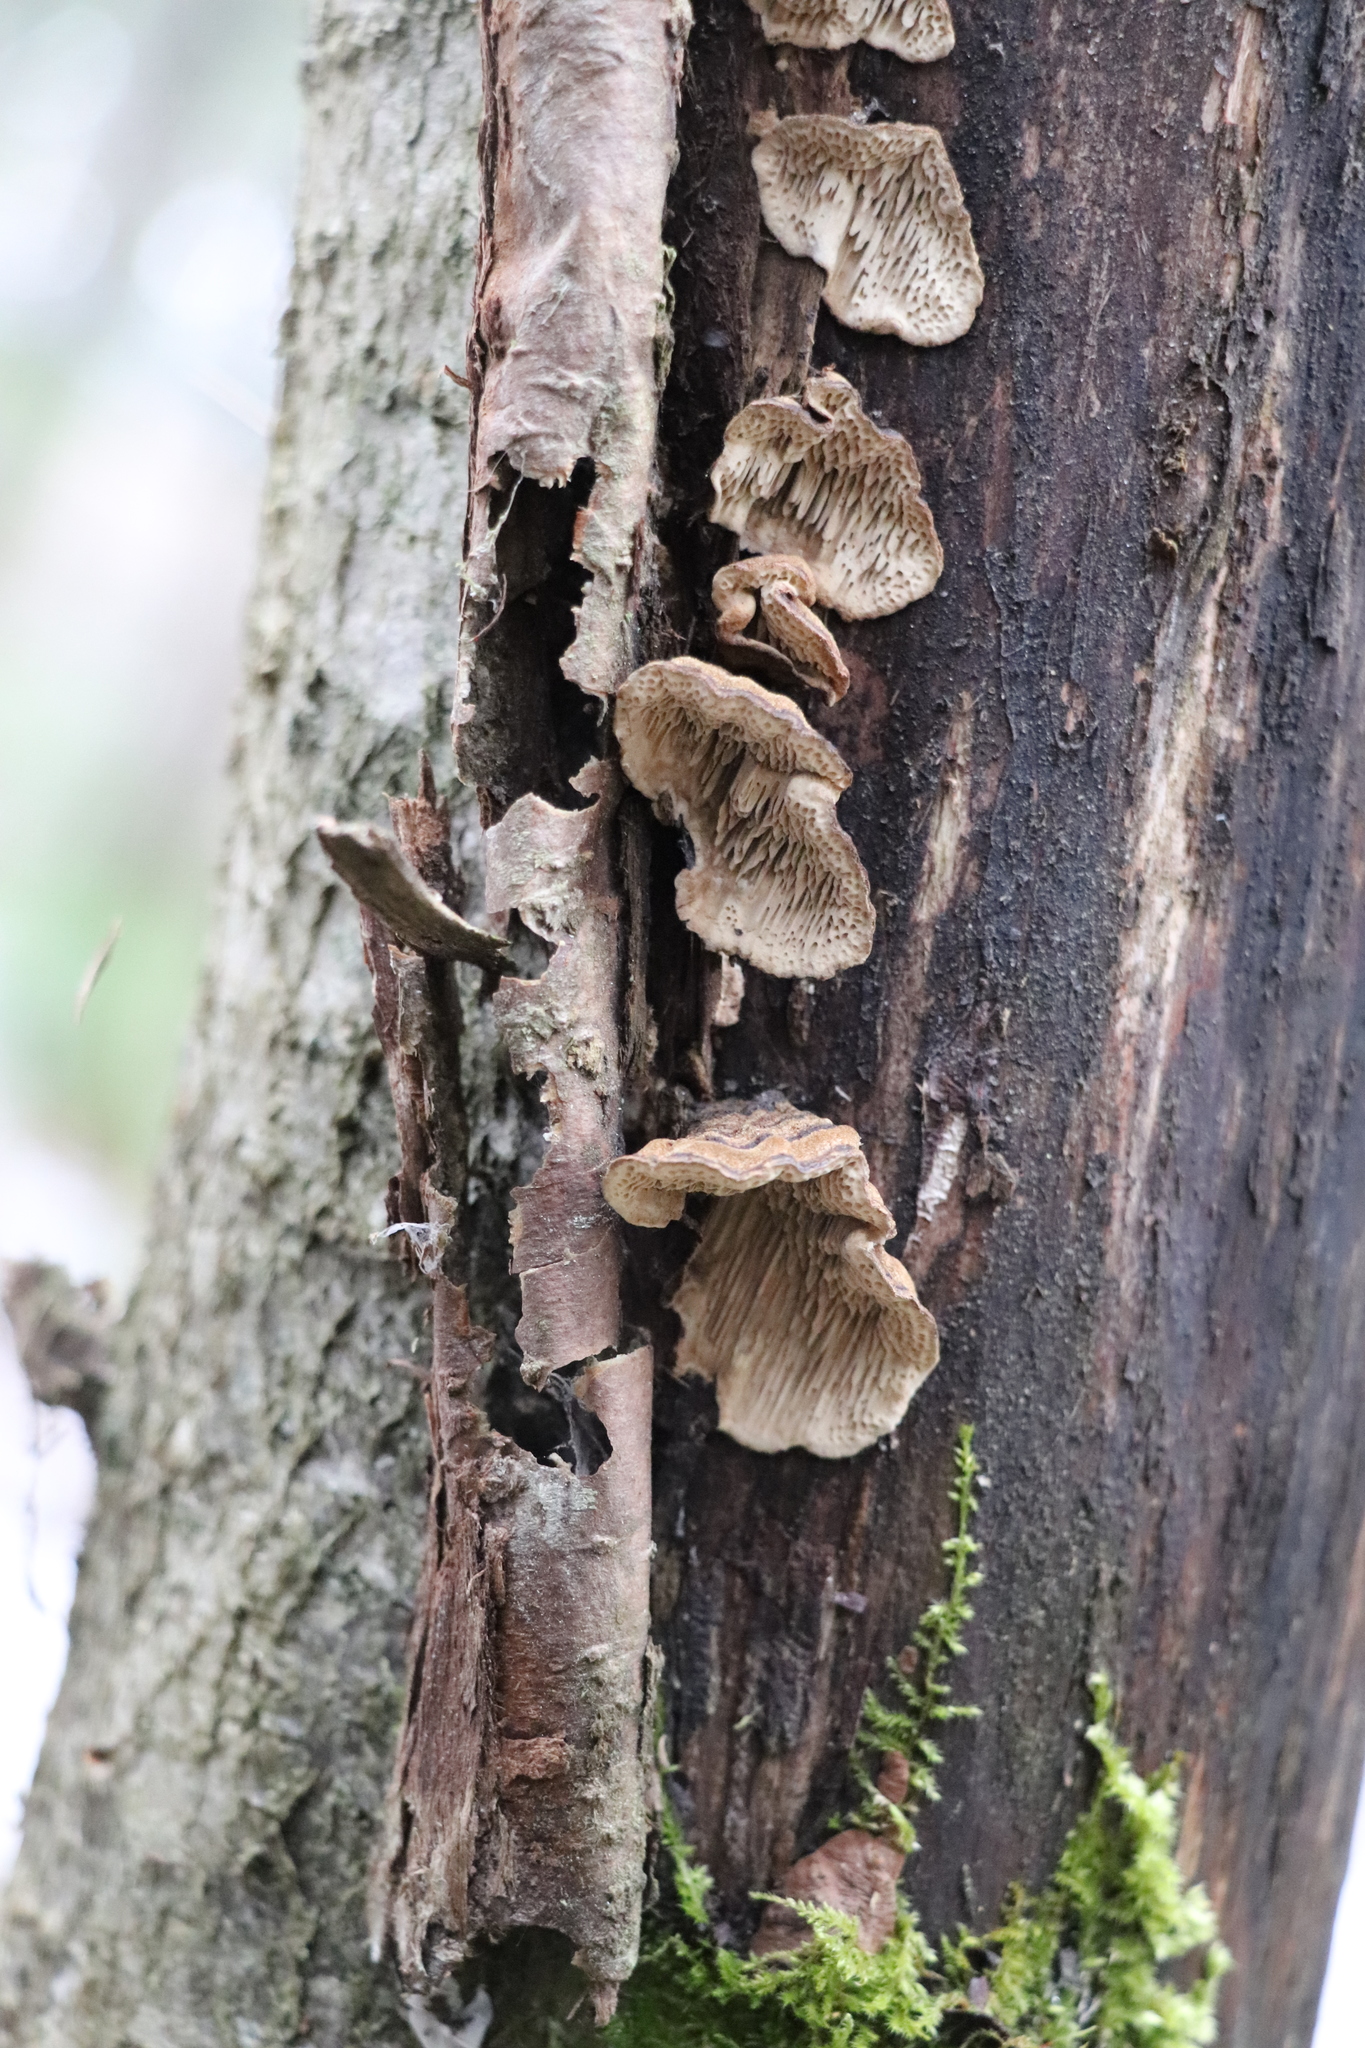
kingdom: Fungi
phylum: Basidiomycota
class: Agaricomycetes
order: Polyporales
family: Polyporaceae
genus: Podofomes
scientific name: Podofomes mollis
